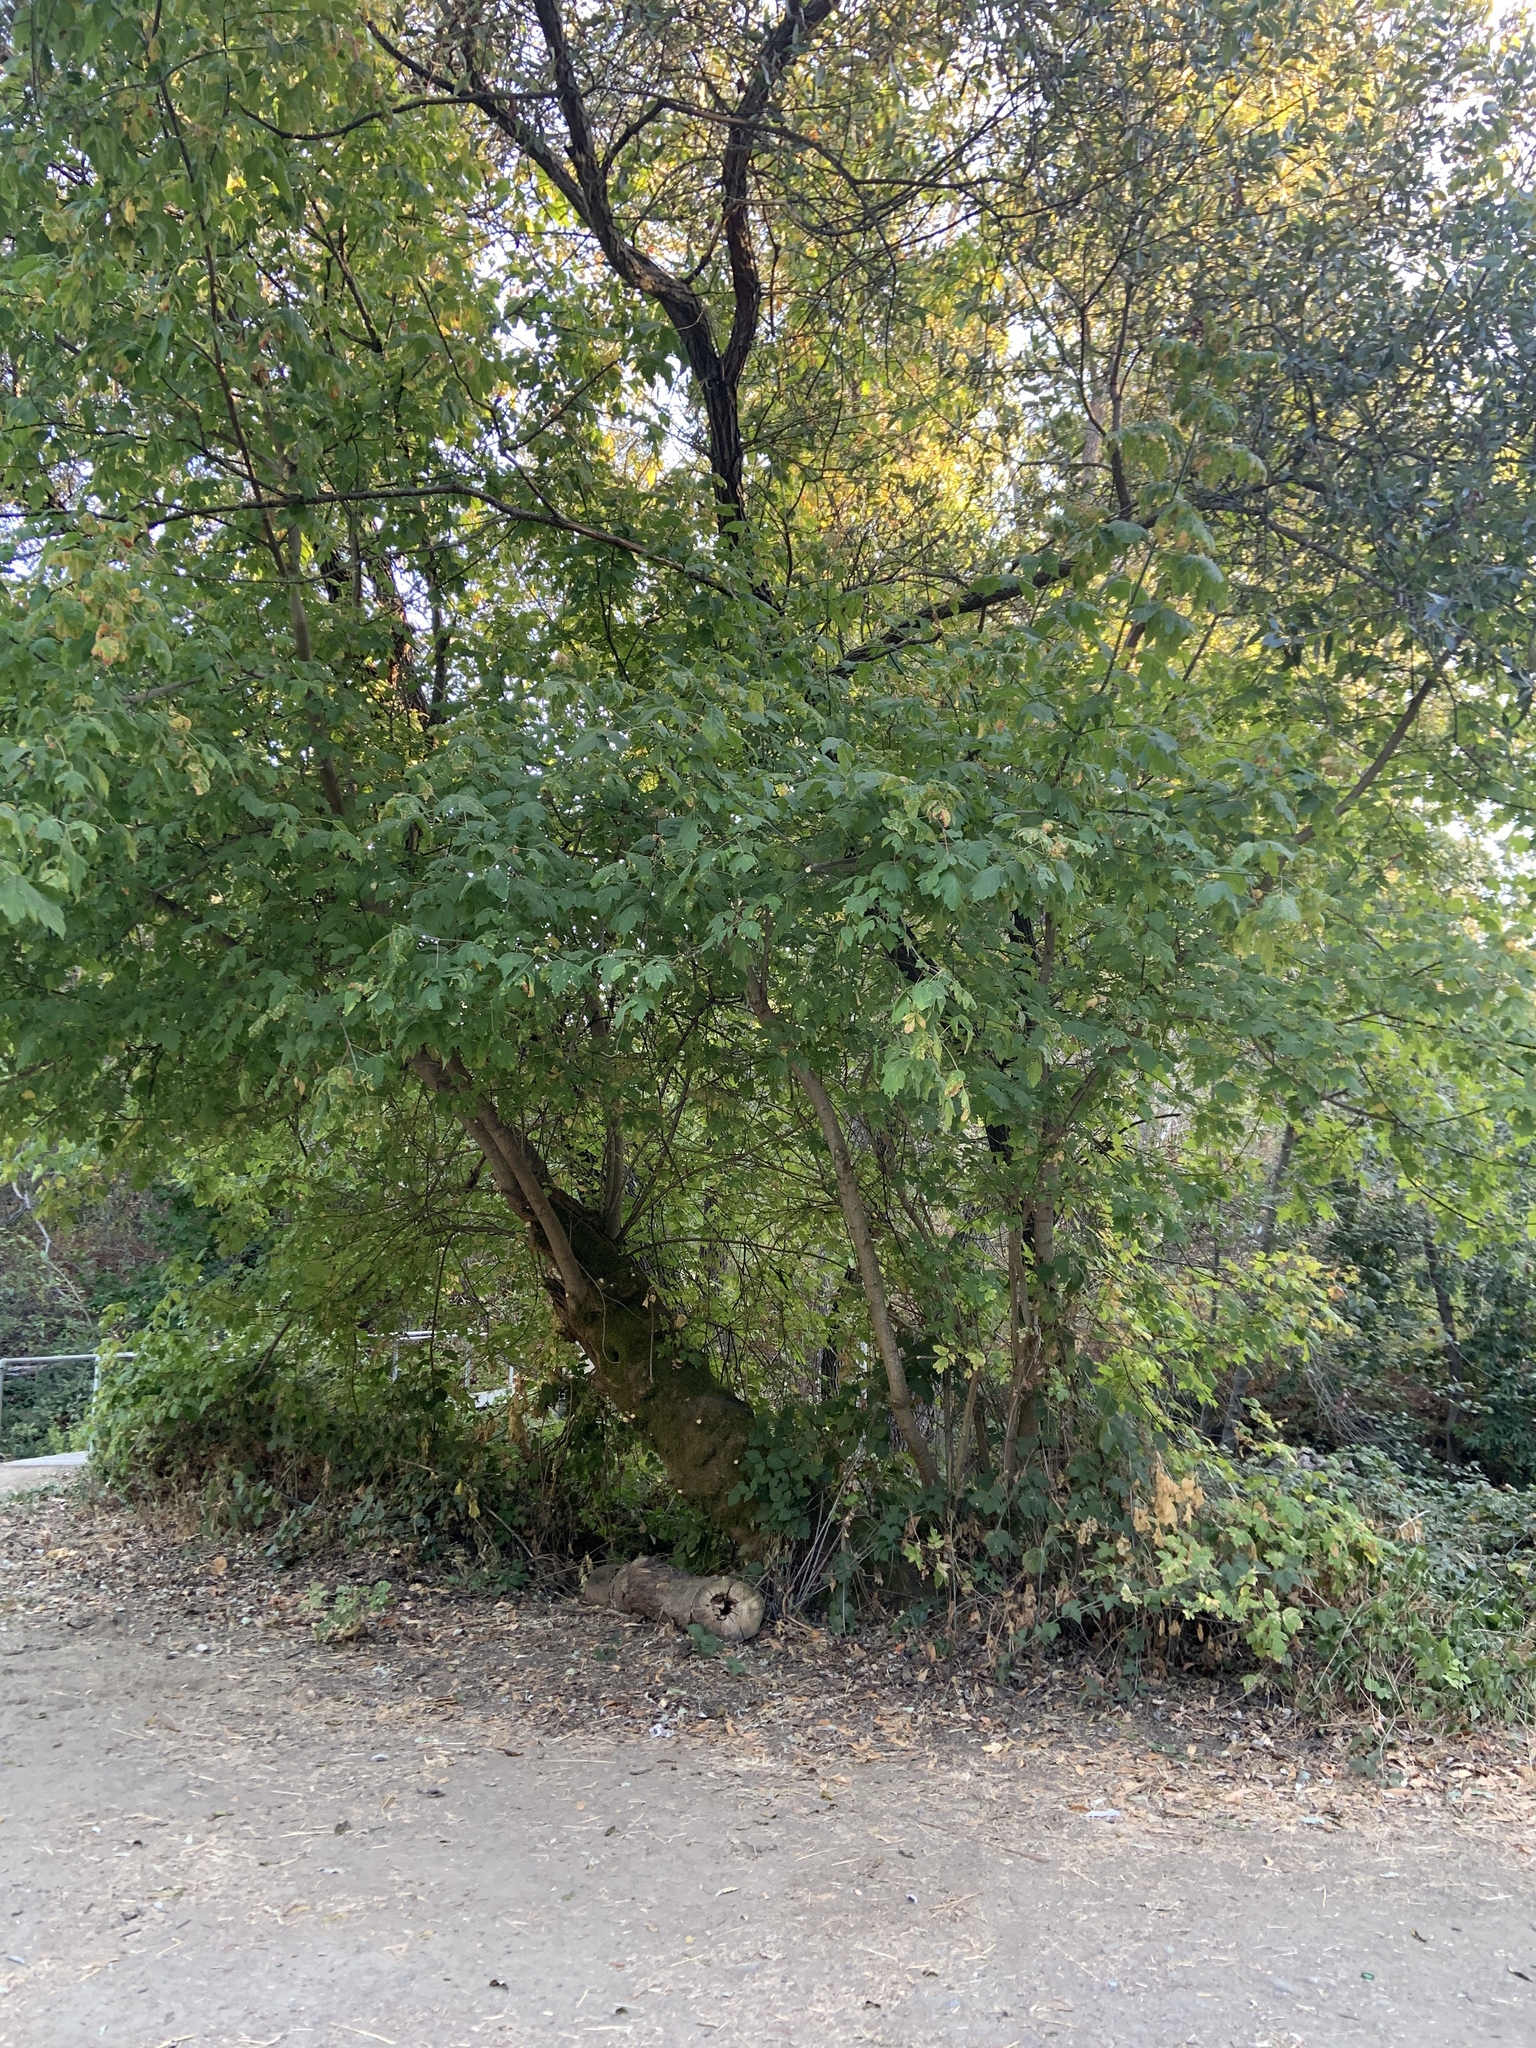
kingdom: Plantae
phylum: Tracheophyta
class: Magnoliopsida
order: Sapindales
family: Sapindaceae
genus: Acer
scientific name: Acer negundo
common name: Ashleaf maple
